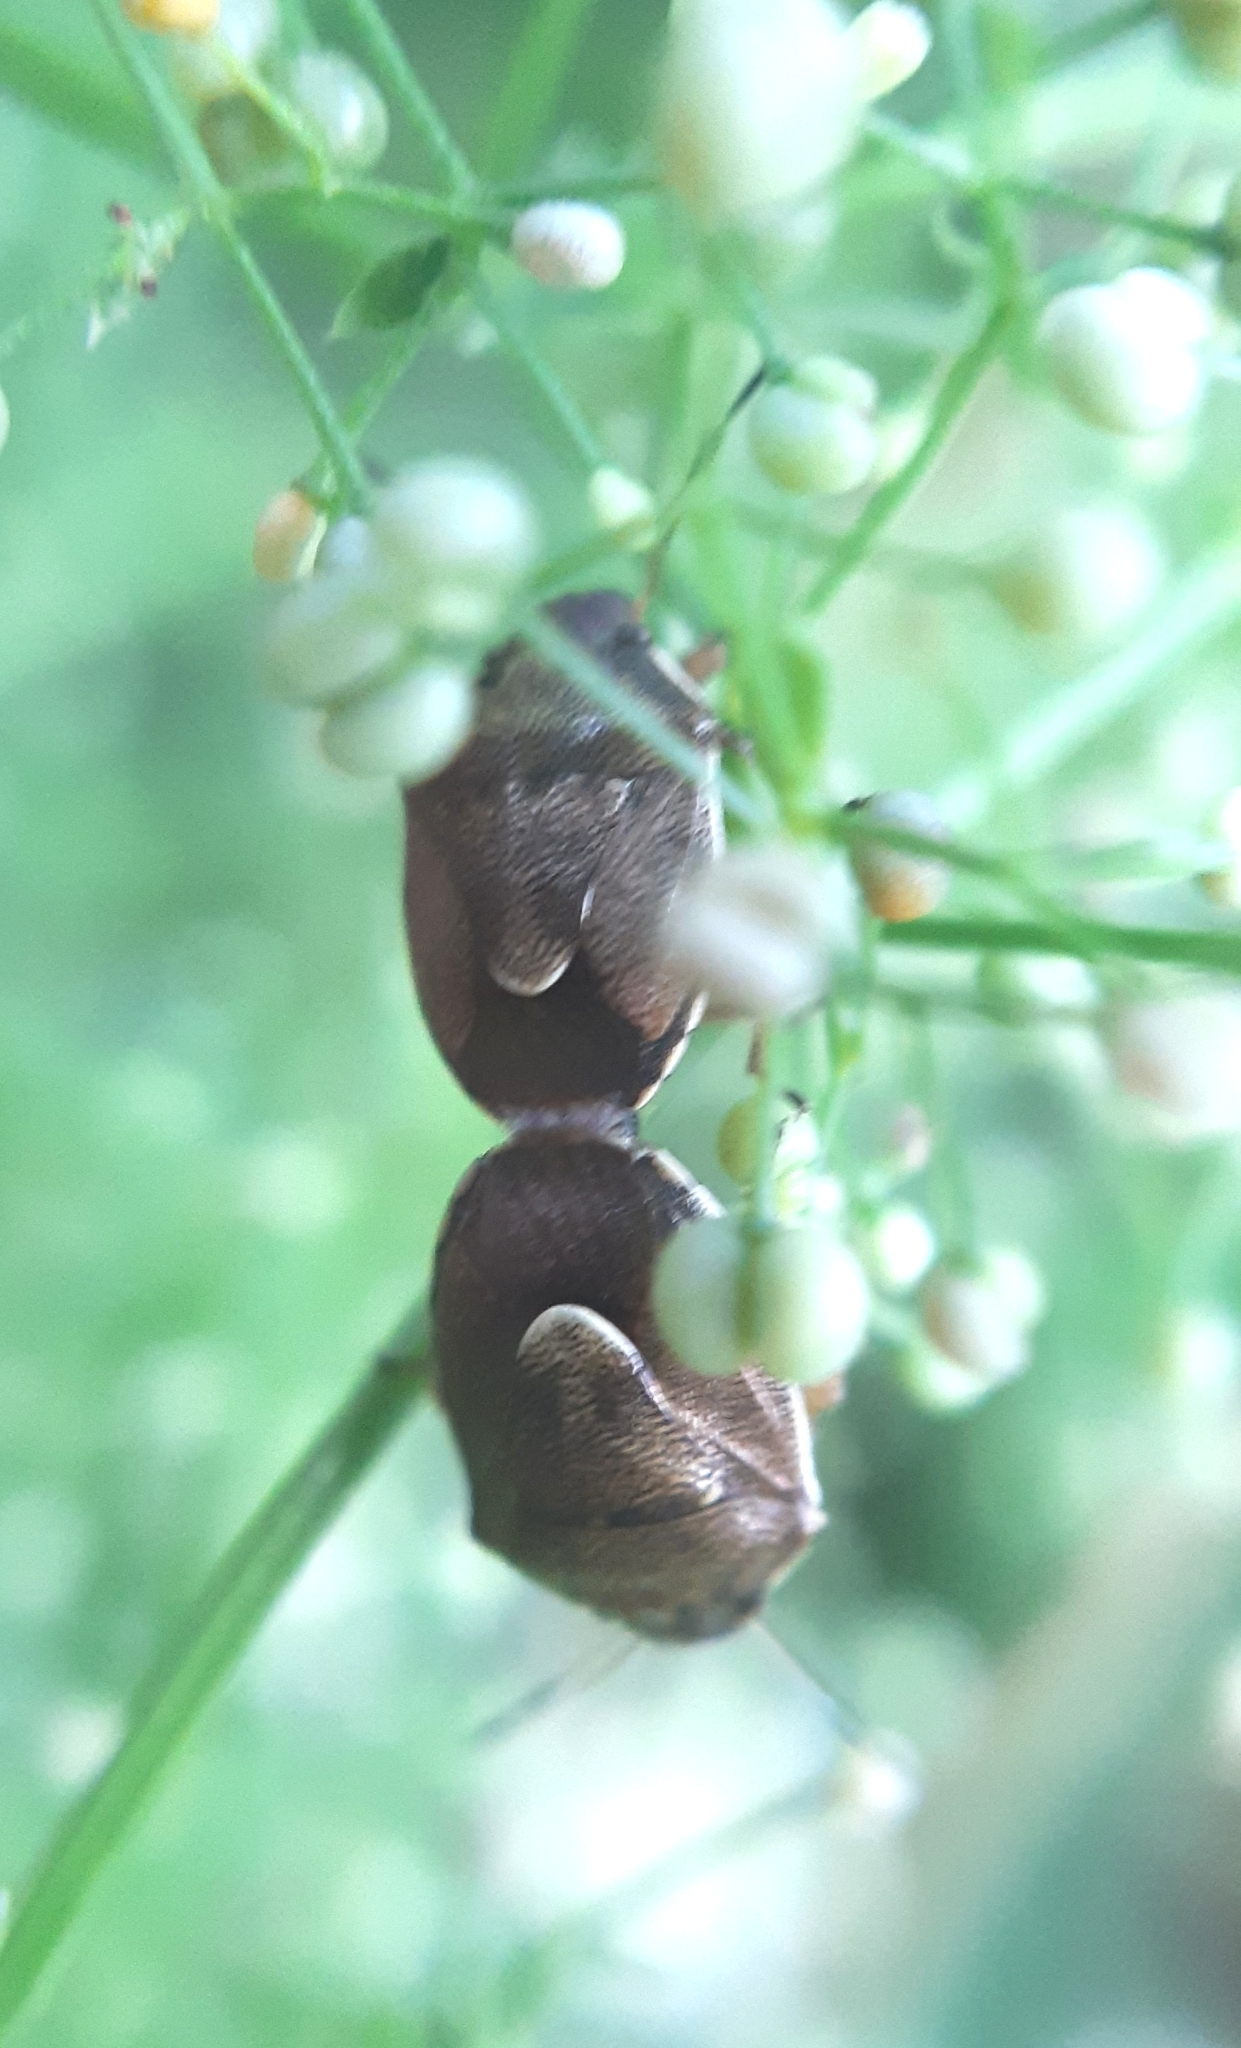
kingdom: Animalia
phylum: Arthropoda
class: Insecta
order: Hemiptera
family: Pentatomidae
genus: Rubiconia
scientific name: Rubiconia intermedia
